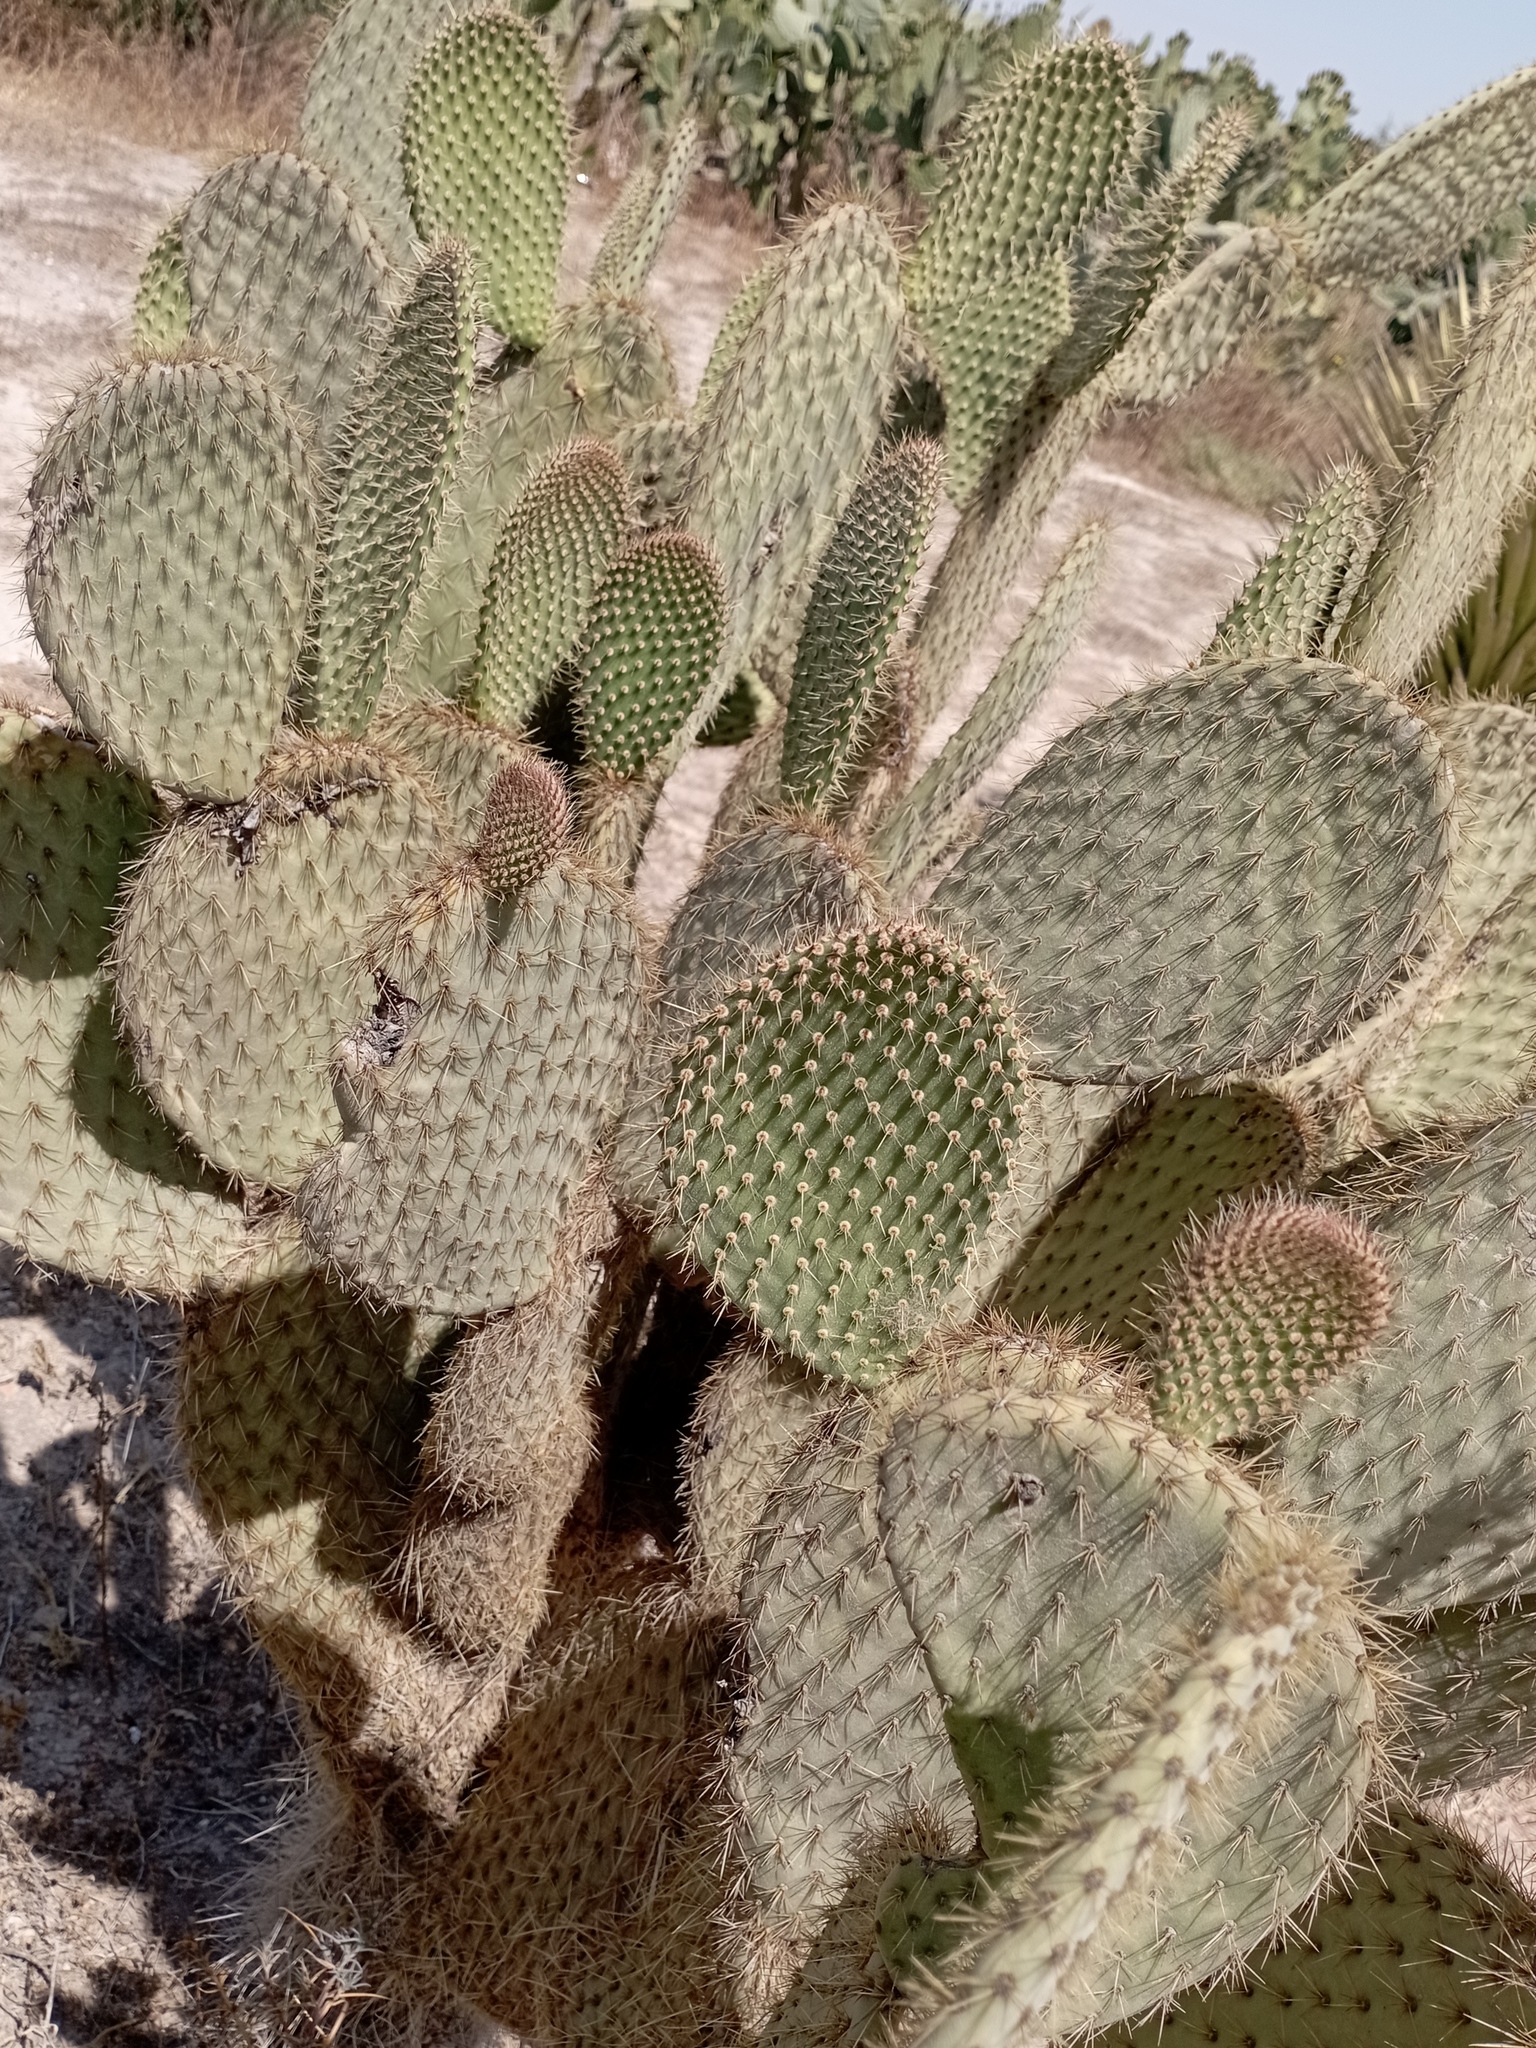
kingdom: Plantae
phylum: Tracheophyta
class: Magnoliopsida
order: Caryophyllales
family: Cactaceae
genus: Opuntia
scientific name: Opuntia scheeri
